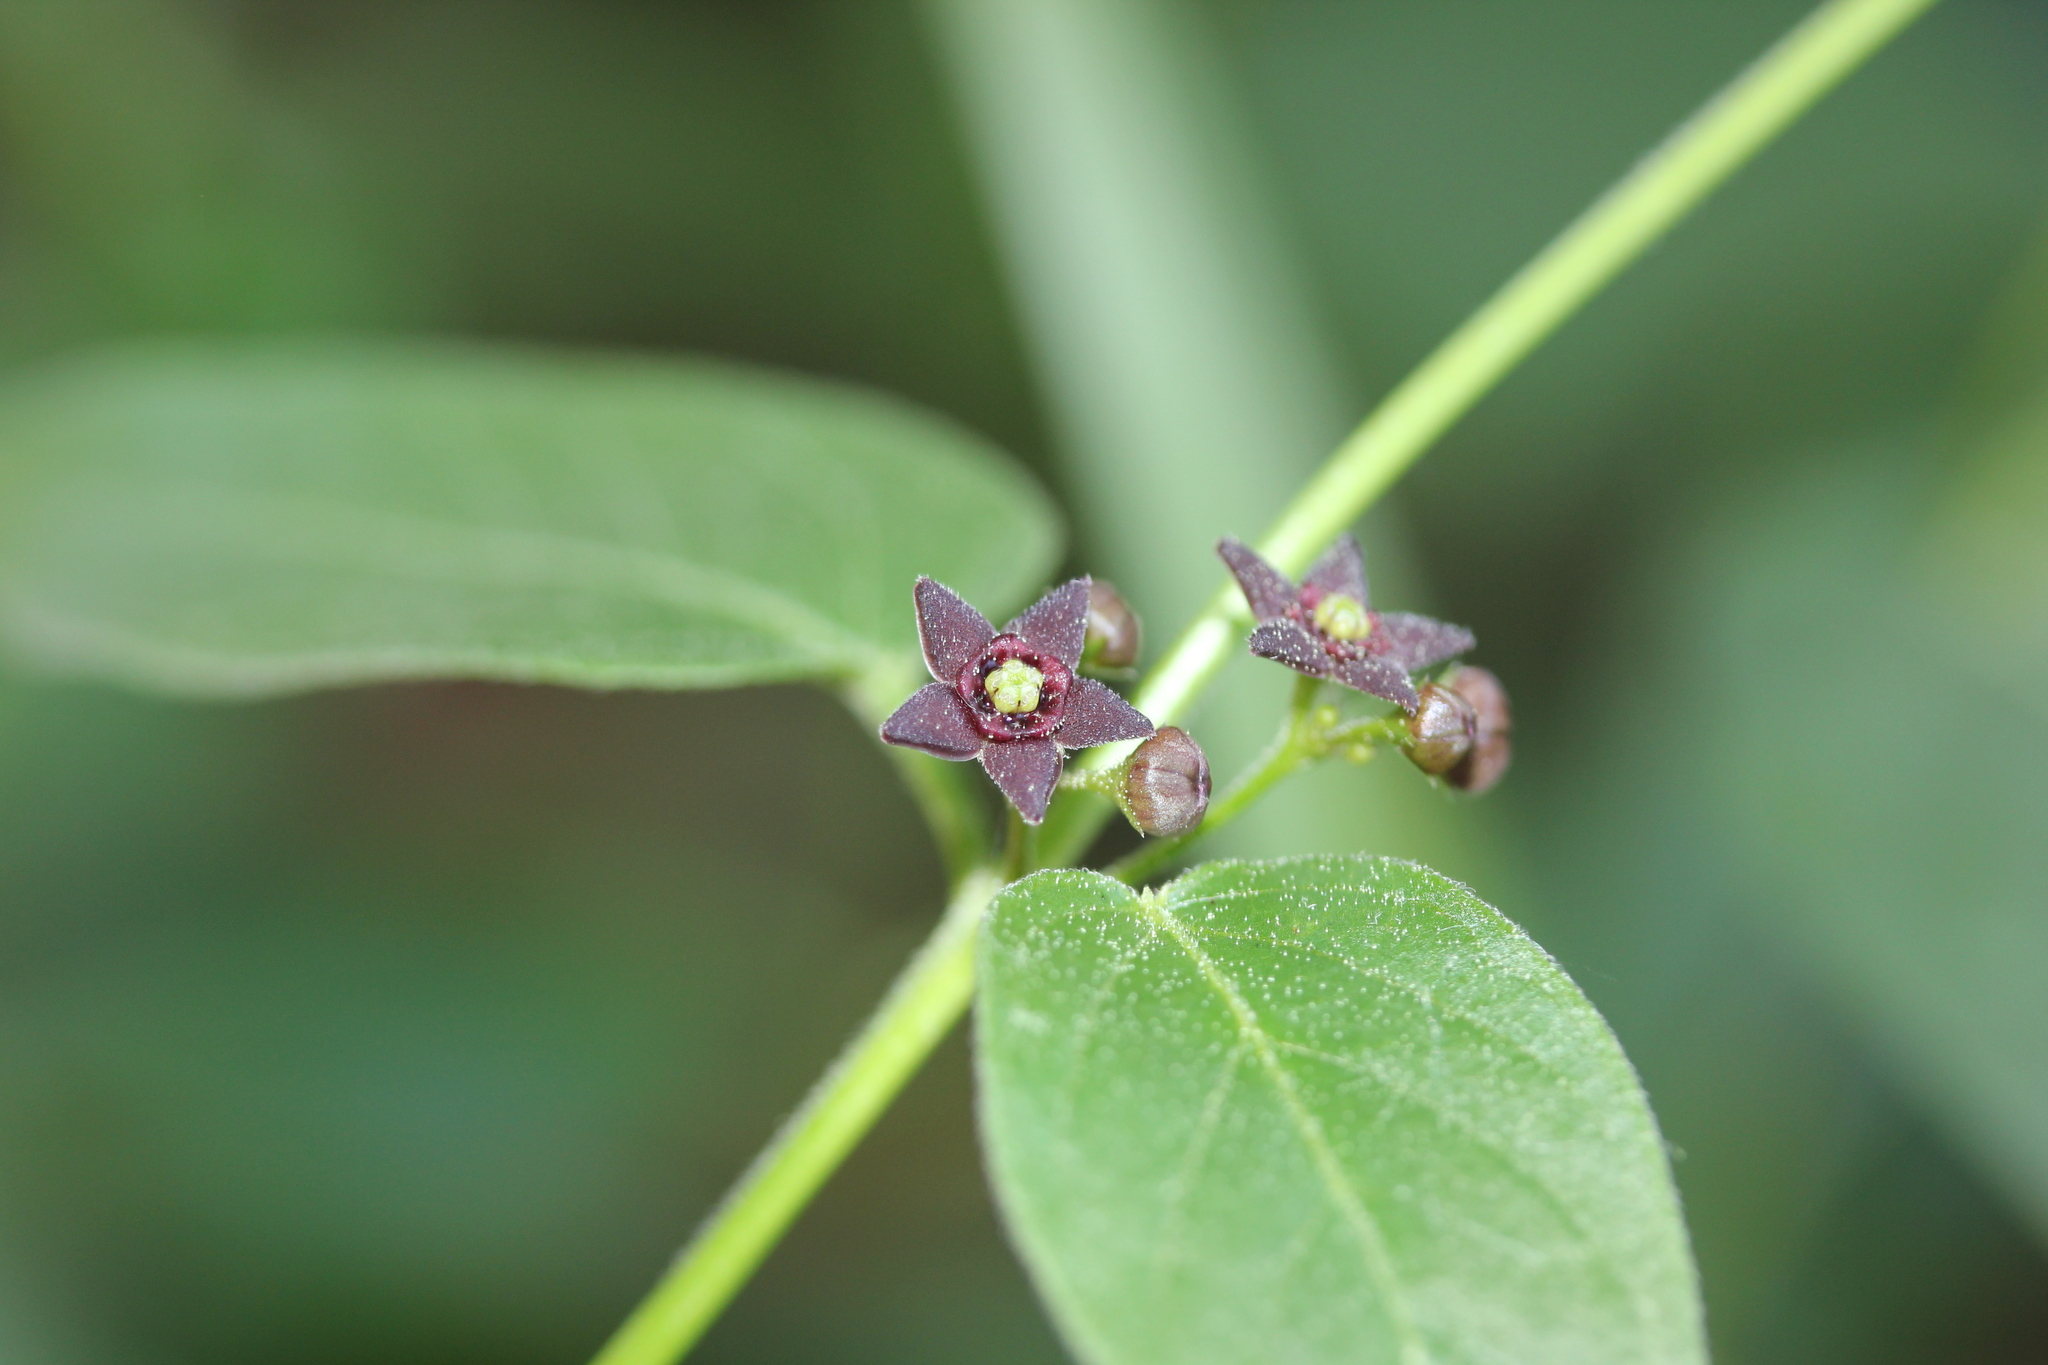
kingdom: Plantae
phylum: Tracheophyta
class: Magnoliopsida
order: Gentianales
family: Apocynaceae
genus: Vincetoxicum
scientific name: Vincetoxicum nigrum
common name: Black swallow-wort
